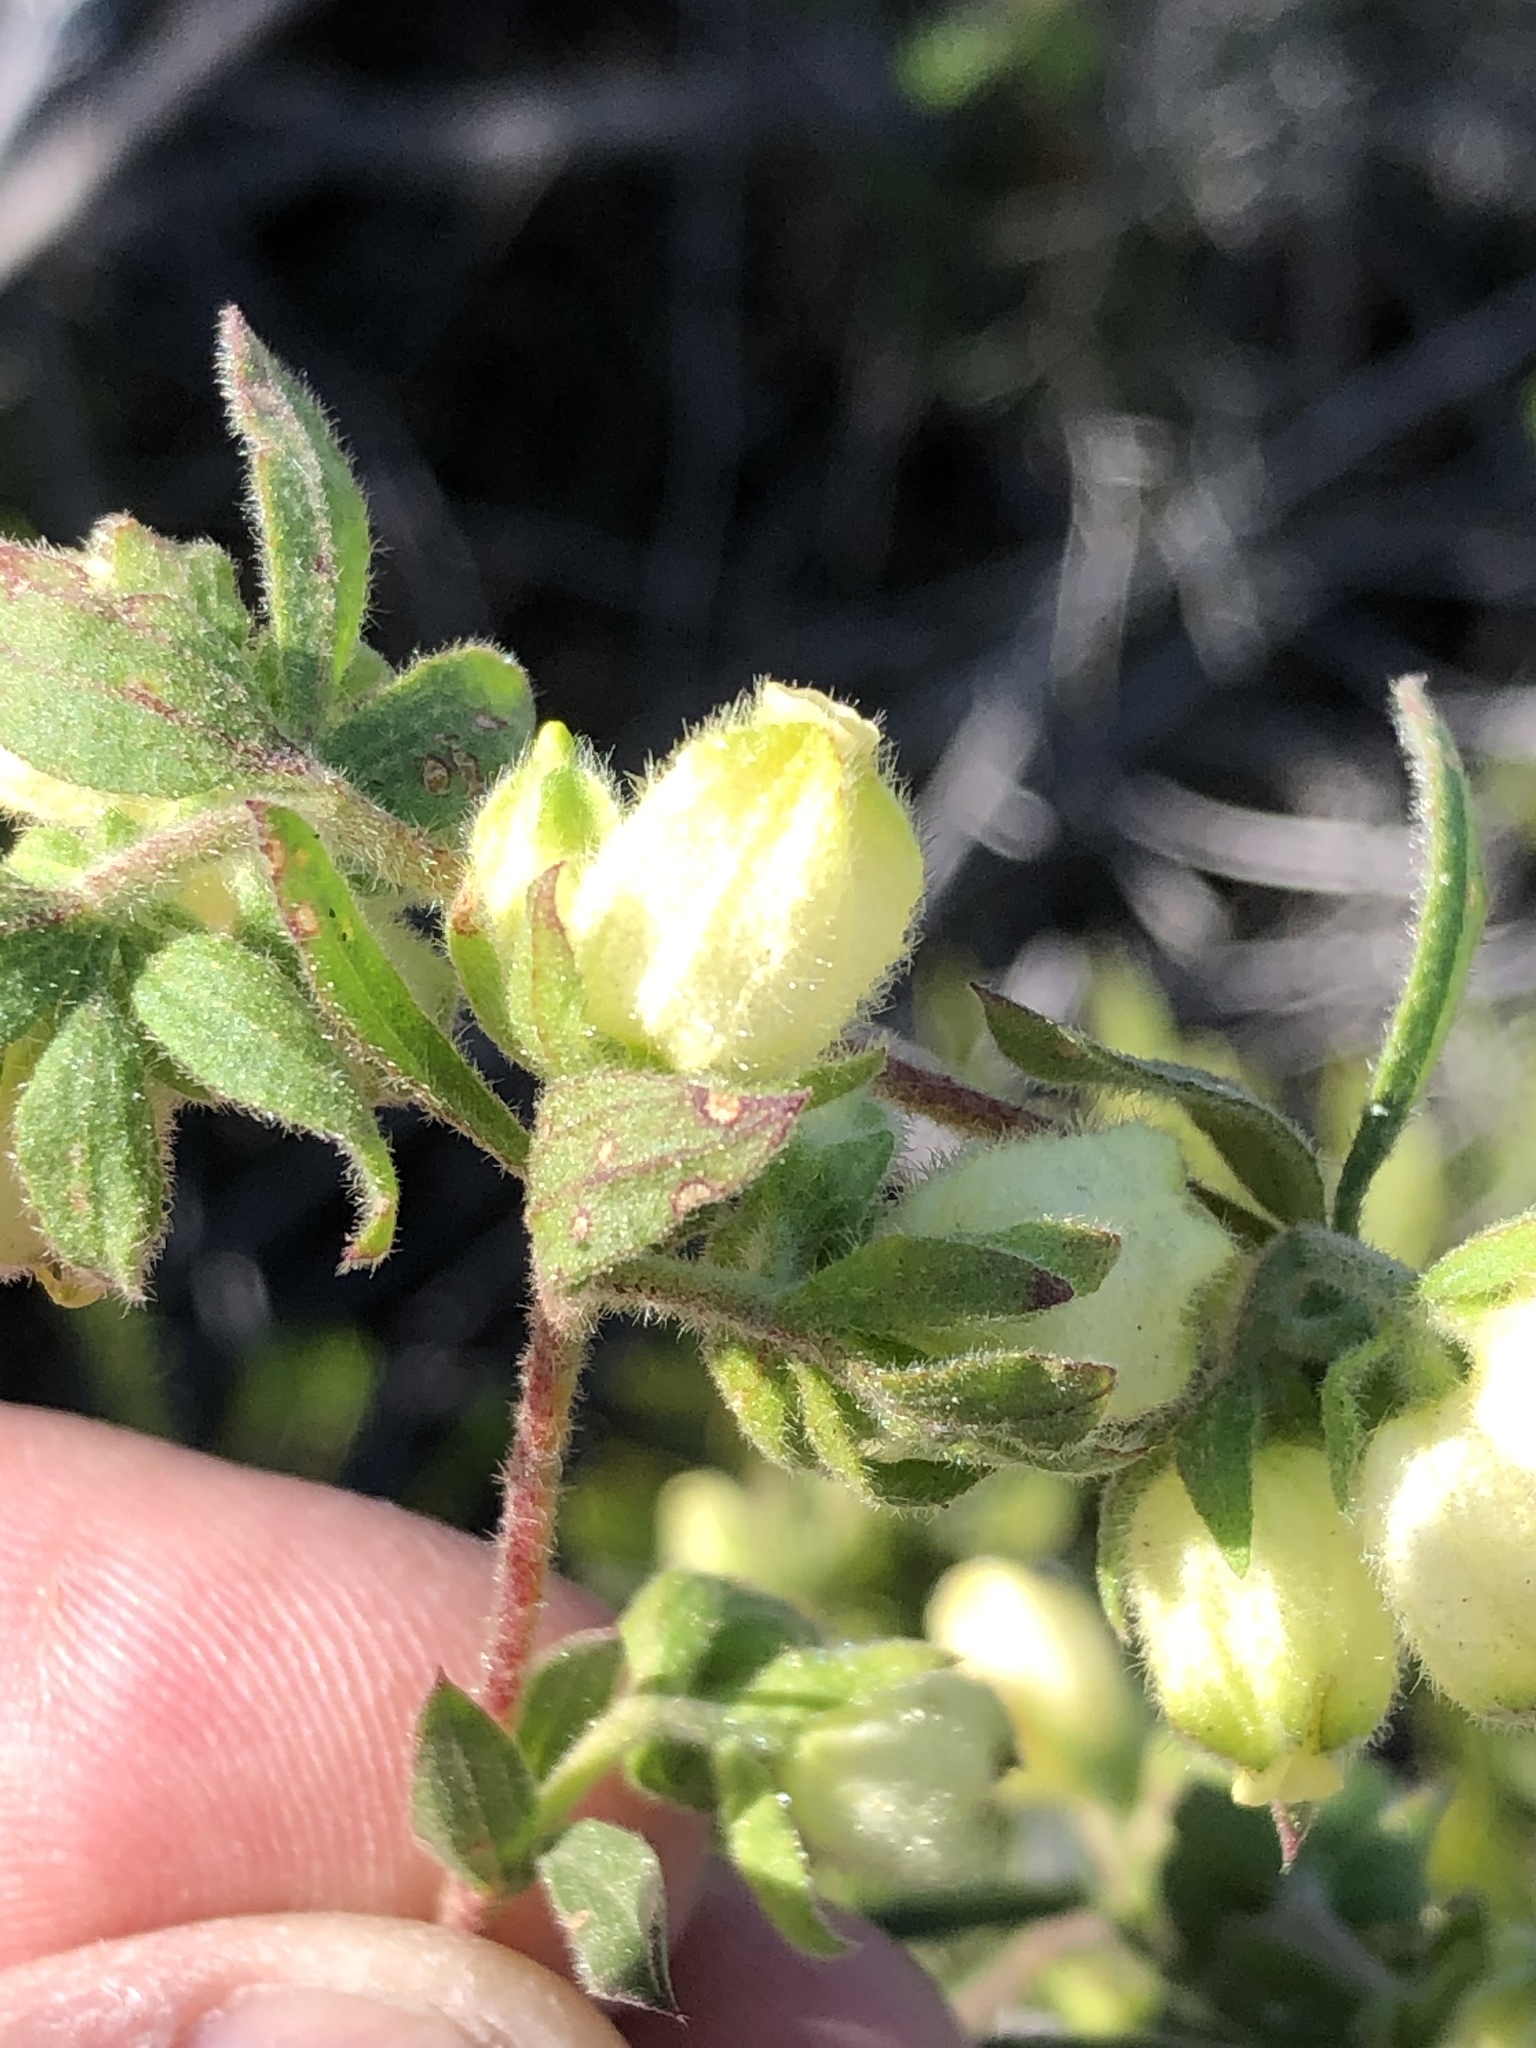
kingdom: Plantae
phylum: Tracheophyta
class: Magnoliopsida
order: Malvales
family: Malvaceae
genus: Hermannia
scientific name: Hermannia hyssopifolia
